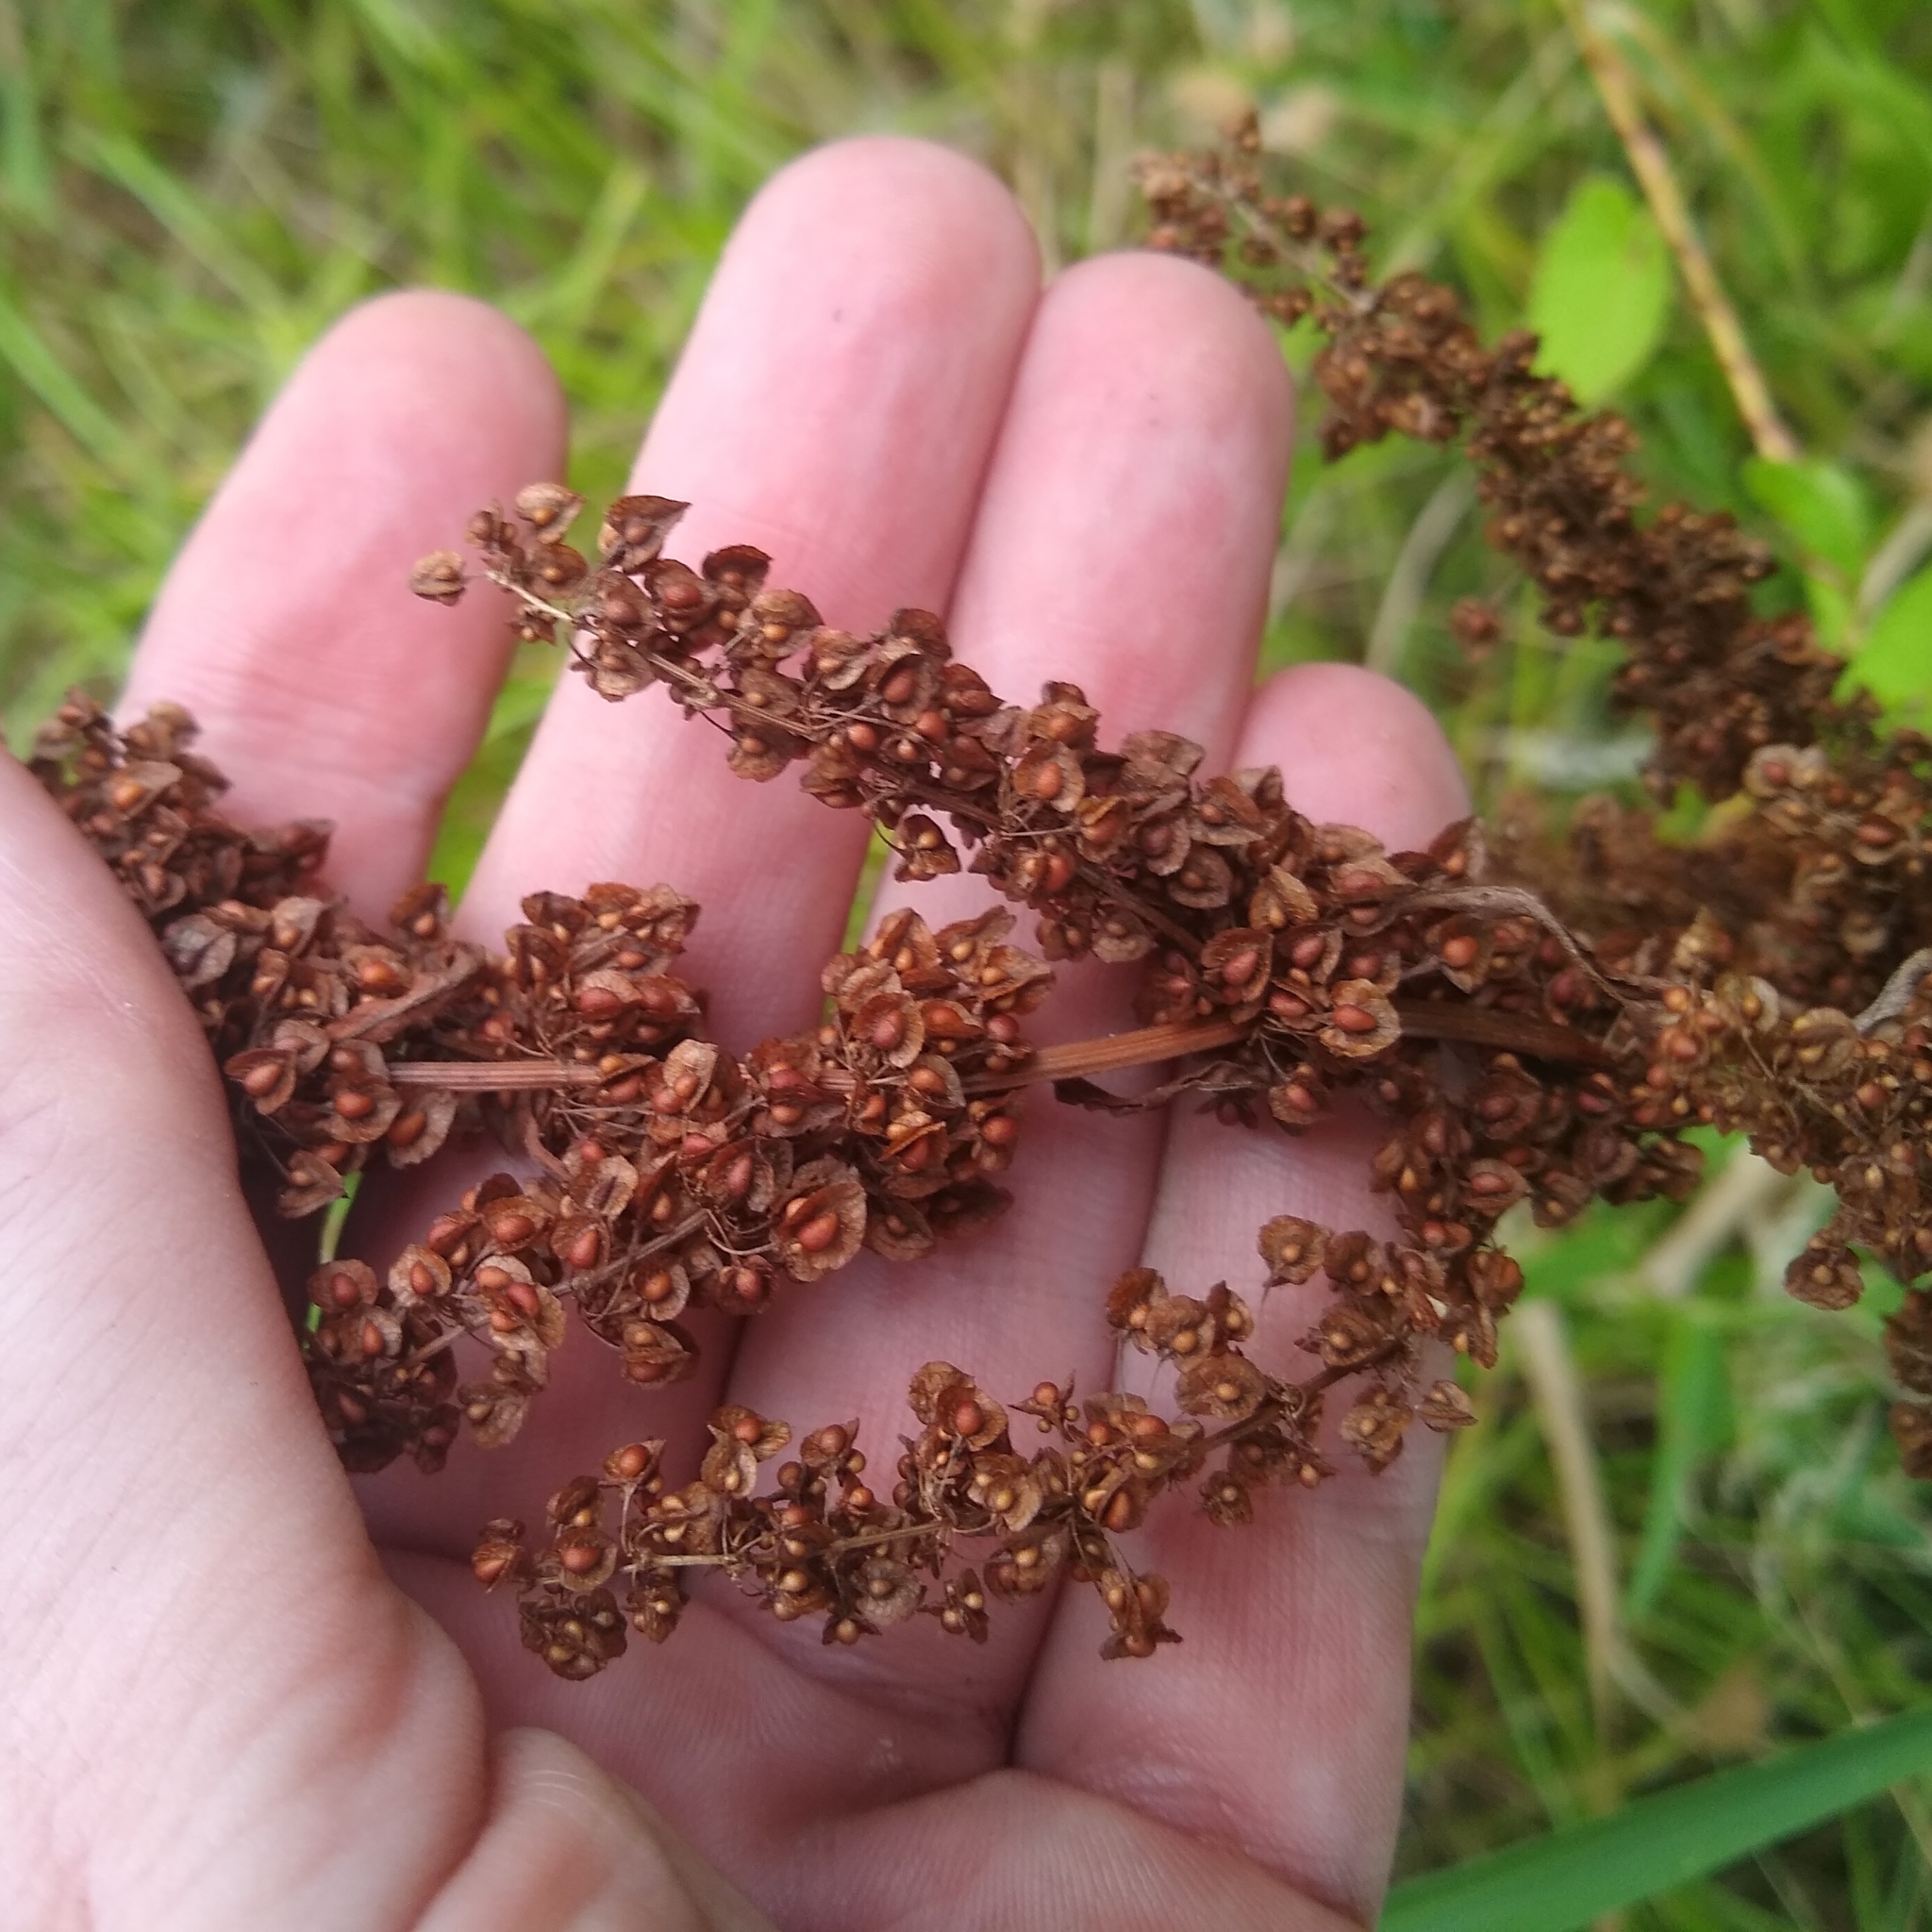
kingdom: Plantae
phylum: Tracheophyta
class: Magnoliopsida
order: Caryophyllales
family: Polygonaceae
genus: Rumex
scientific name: Rumex crispus
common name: Curled dock
